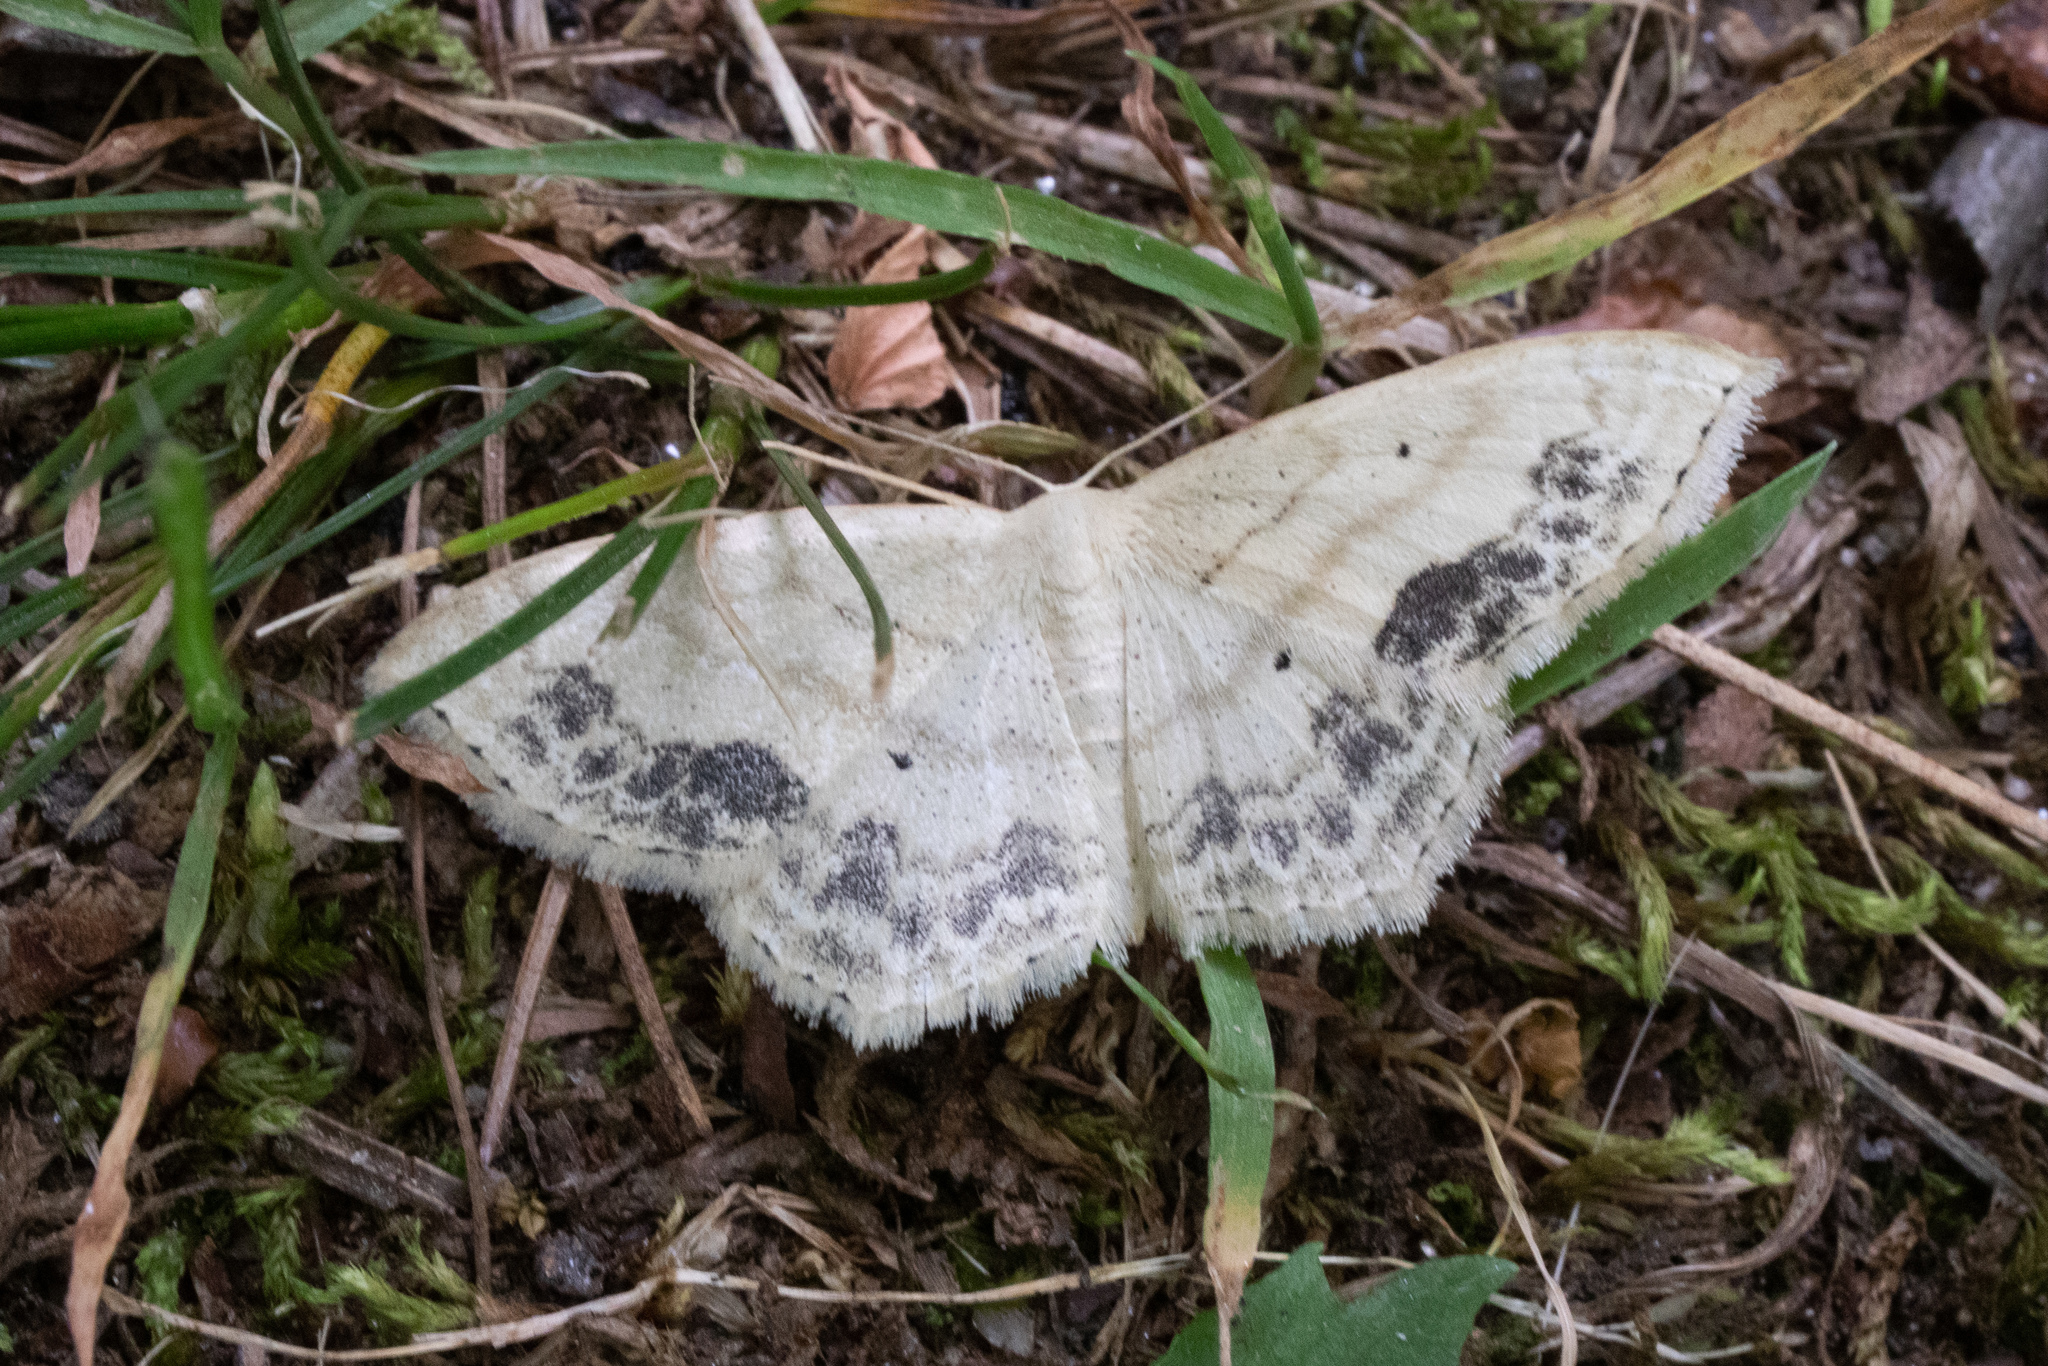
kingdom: Animalia
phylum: Arthropoda
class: Insecta
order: Lepidoptera
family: Geometridae
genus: Scopula
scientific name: Scopula limboundata
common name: Large lace border
